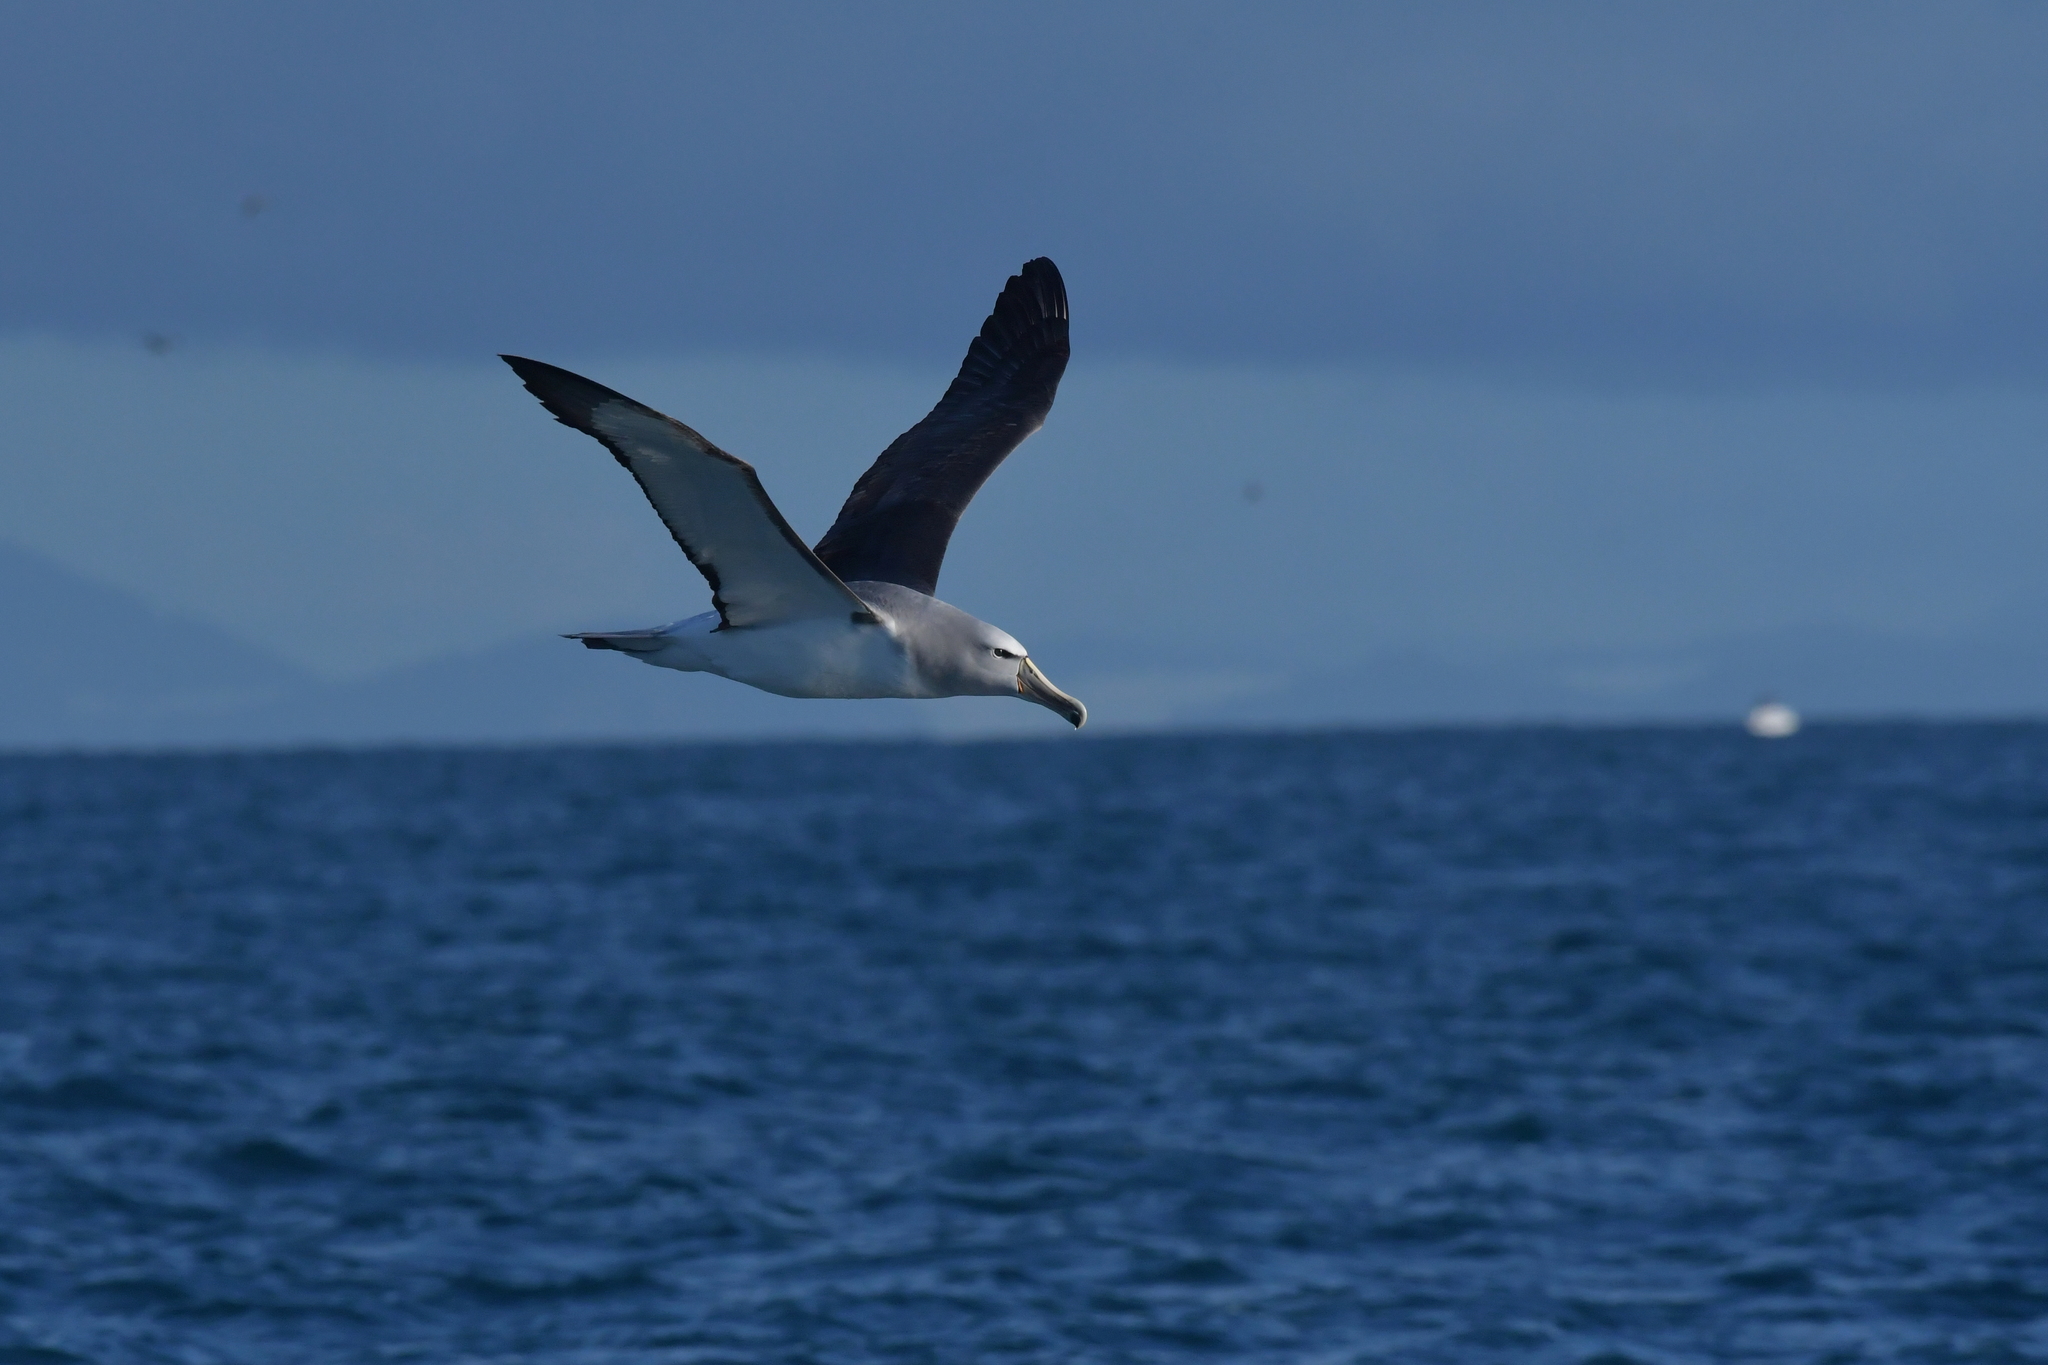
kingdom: Animalia
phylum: Chordata
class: Aves
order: Procellariiformes
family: Diomedeidae
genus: Thalassarche
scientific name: Thalassarche salvini
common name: Salvin's albatross
